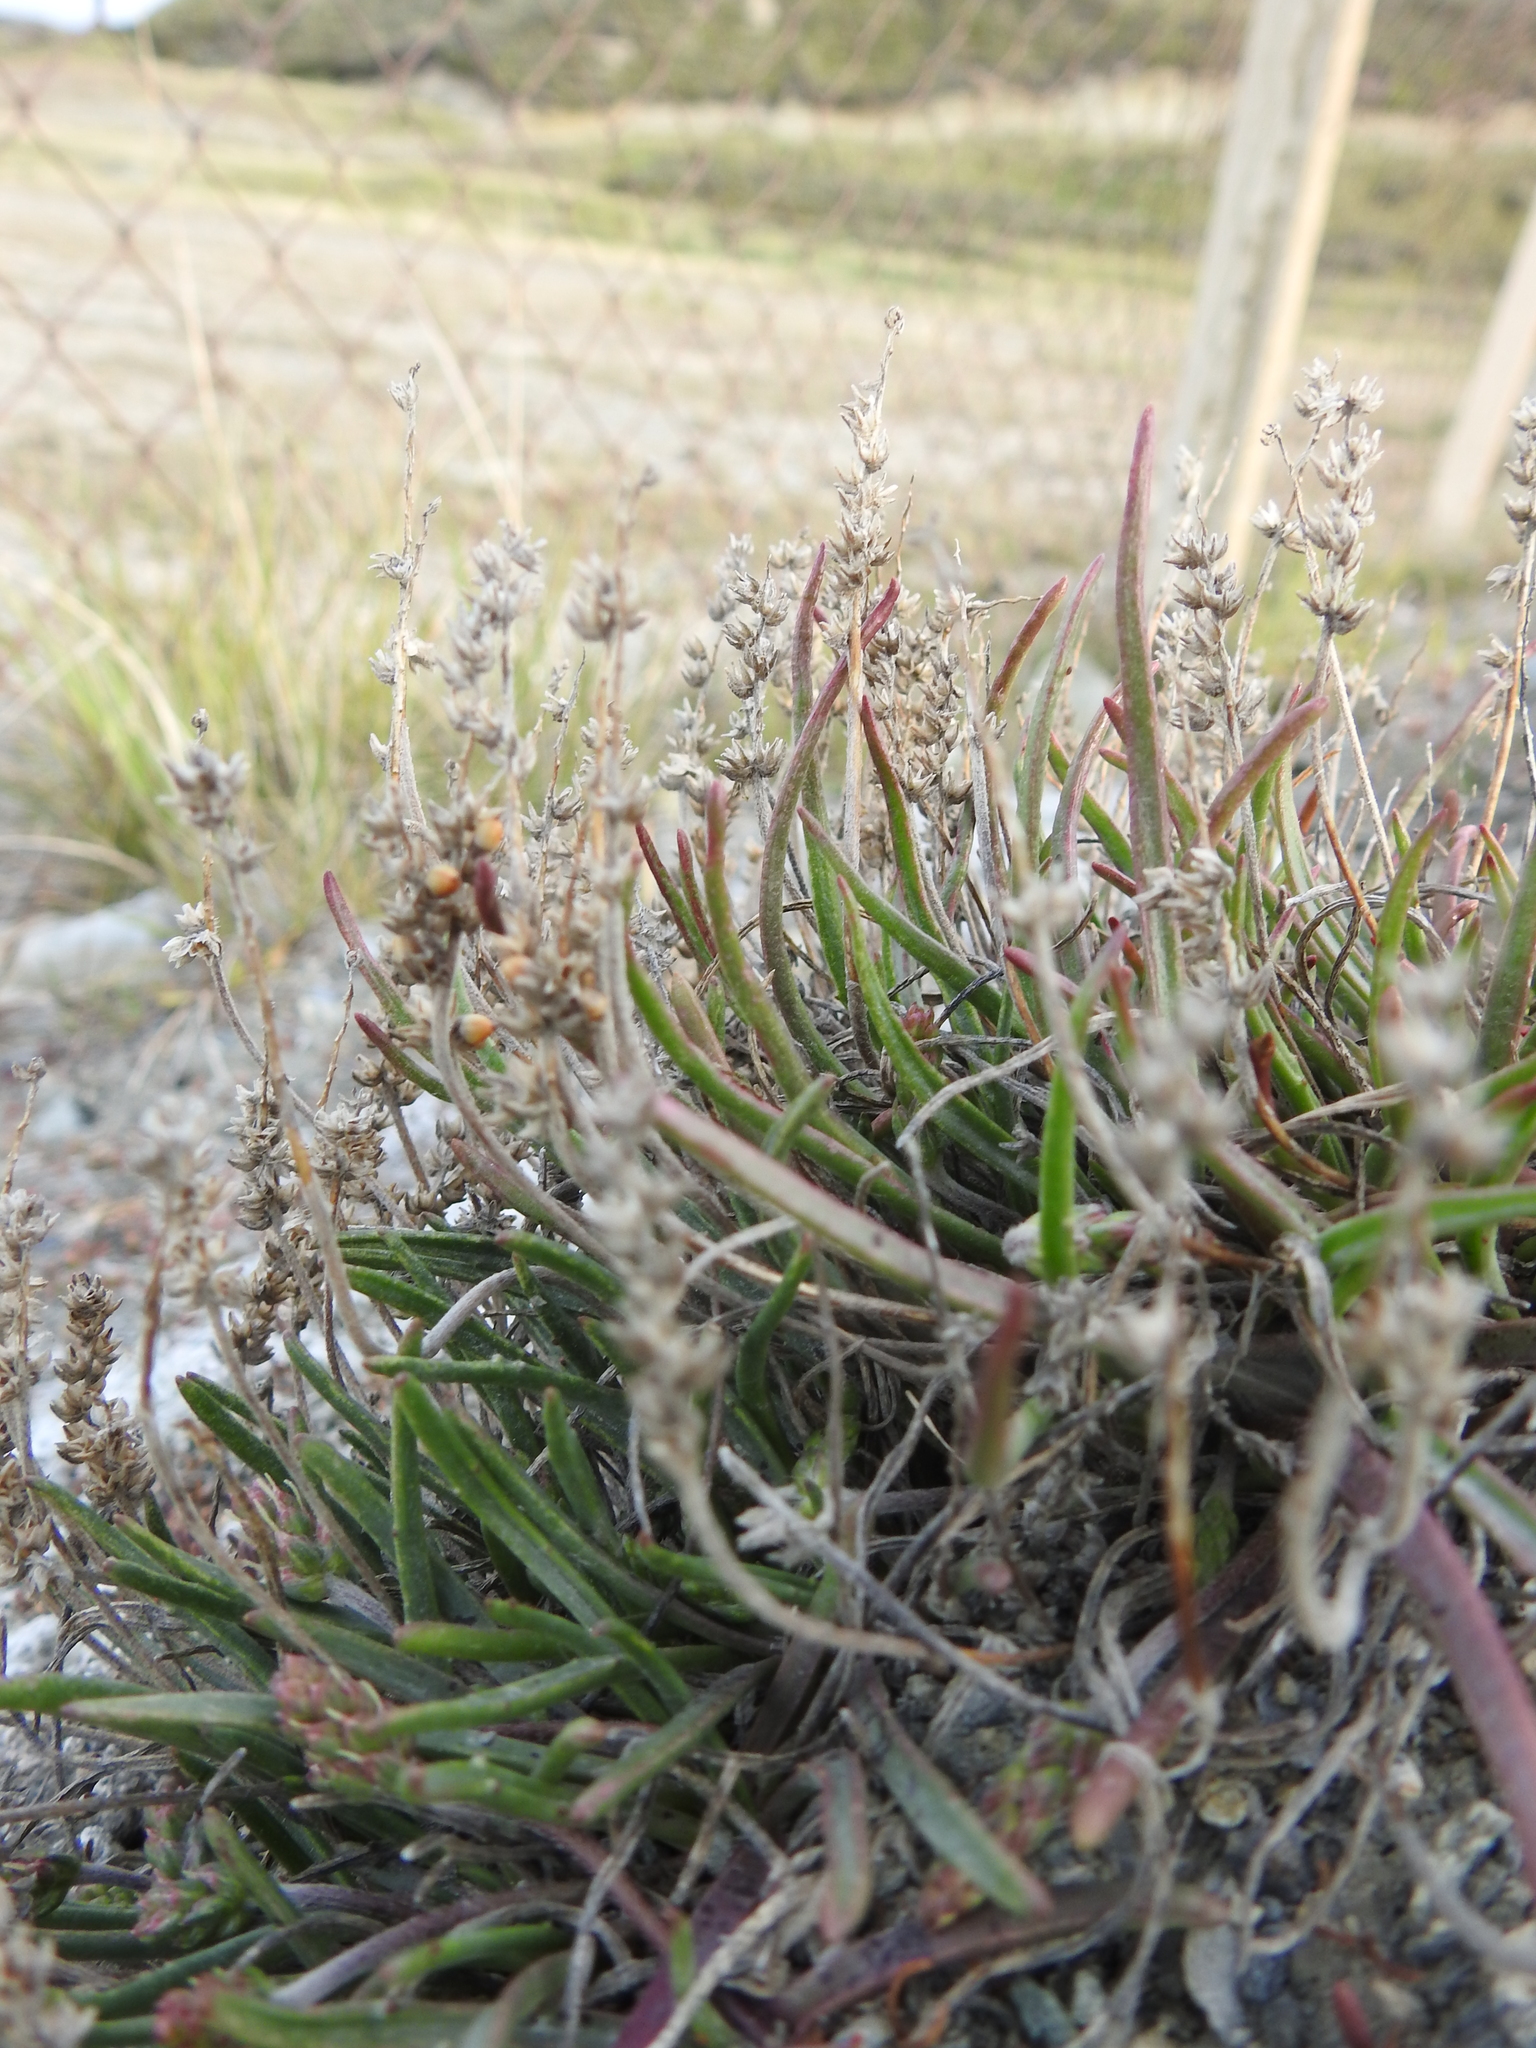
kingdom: Plantae
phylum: Tracheophyta
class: Magnoliopsida
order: Lamiales
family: Plantaginaceae
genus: Plantago
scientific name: Plantago maritima
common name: Sea plantain
